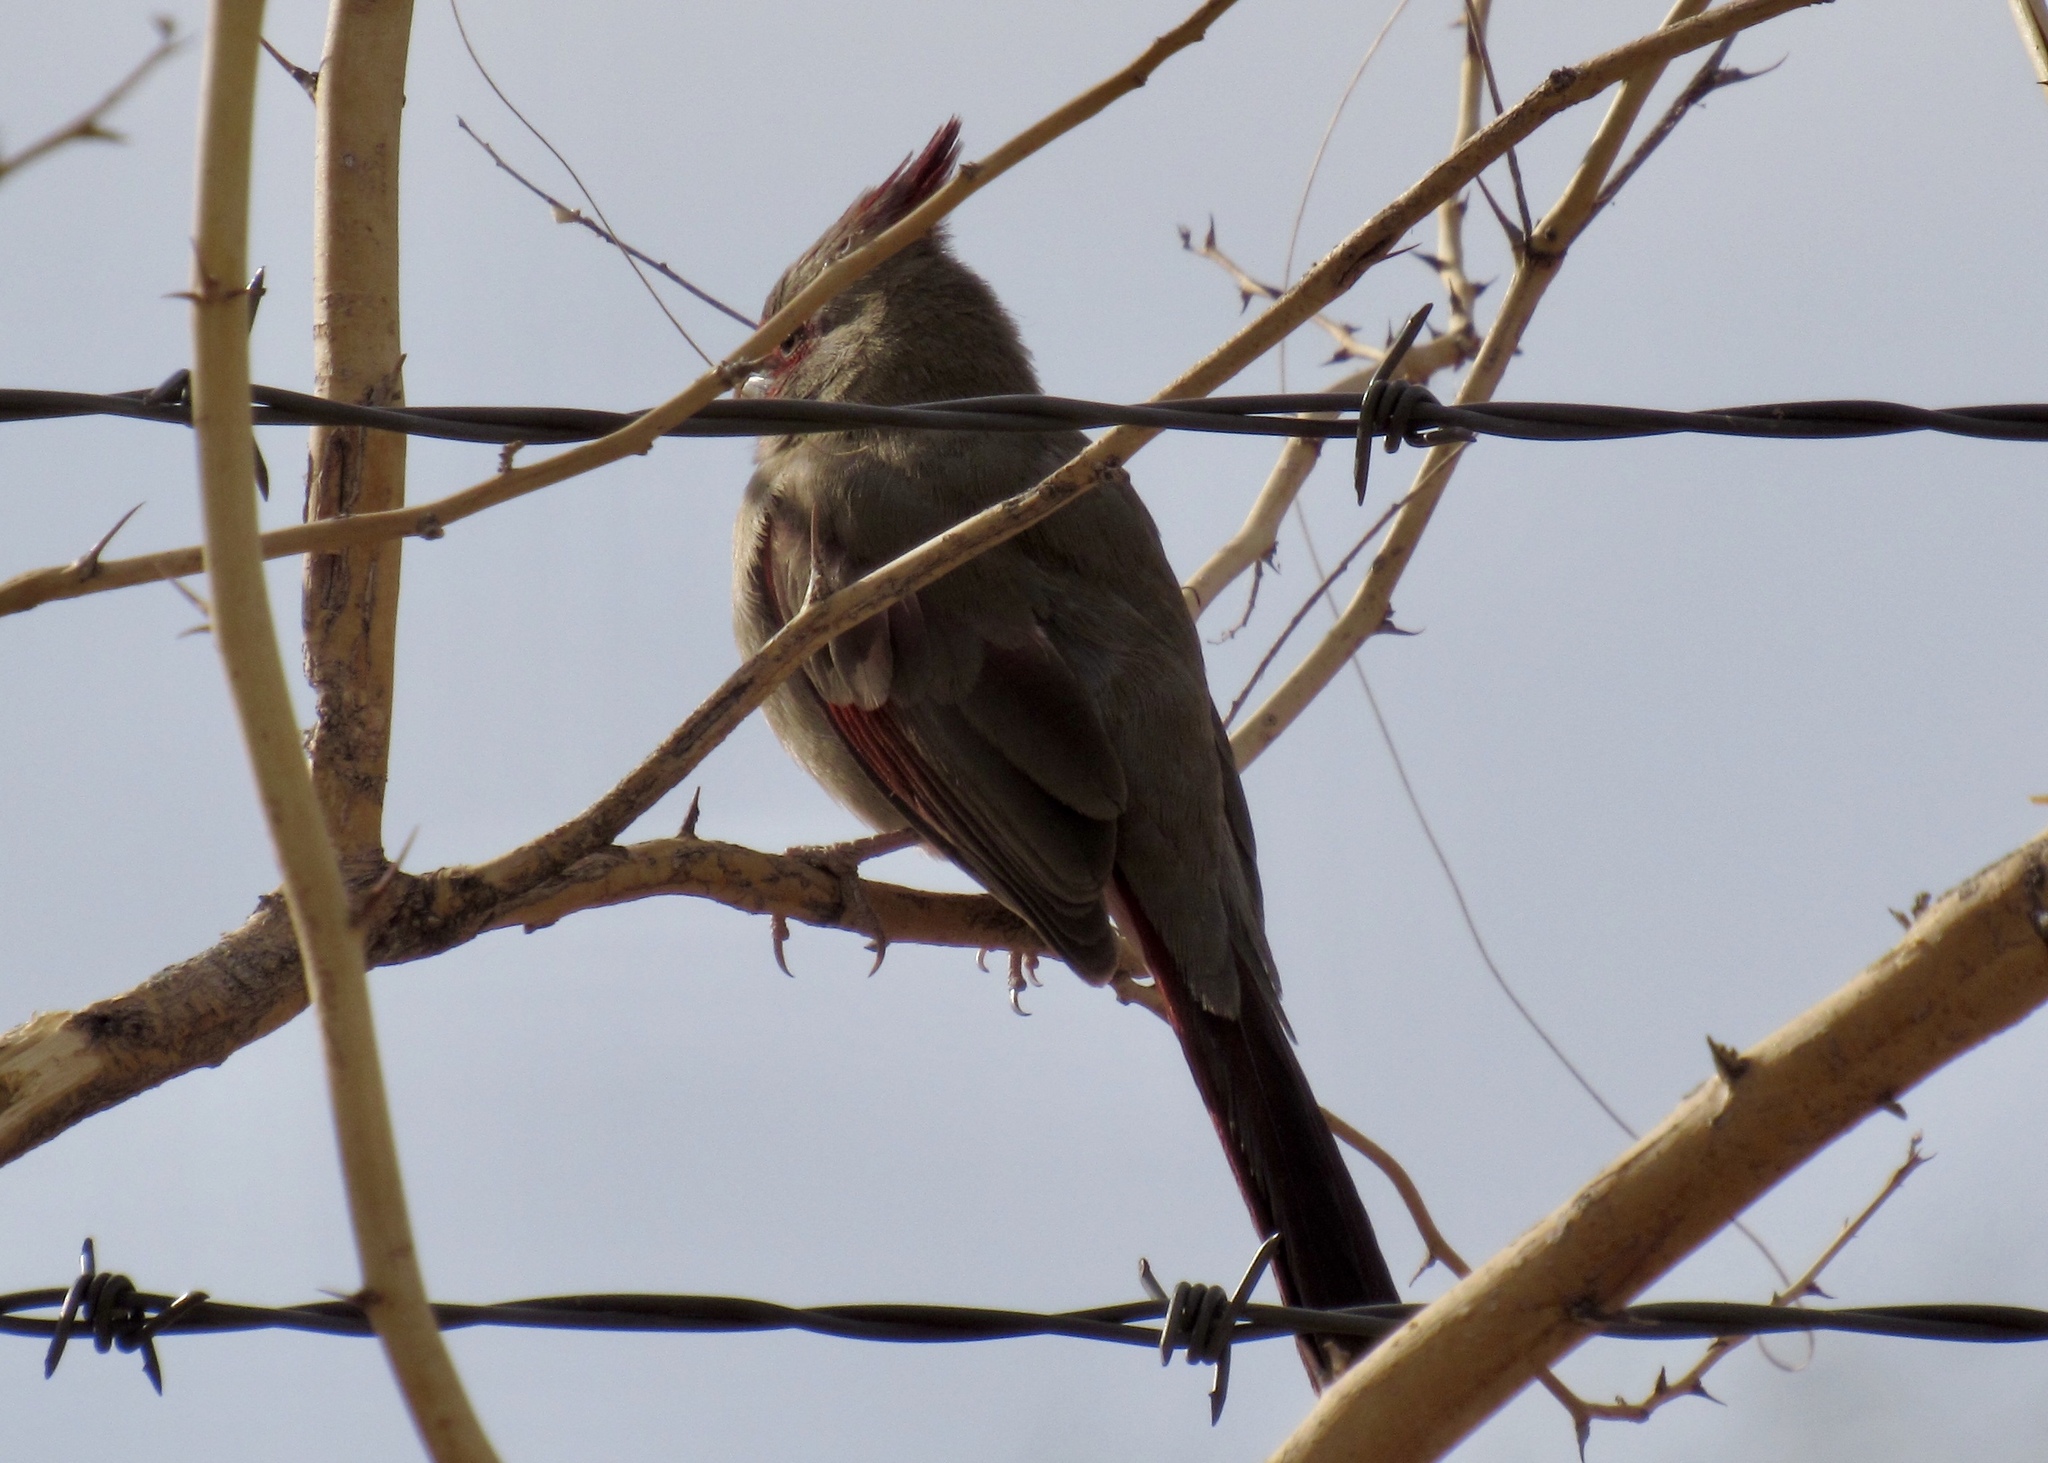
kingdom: Animalia
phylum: Chordata
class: Aves
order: Passeriformes
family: Cardinalidae
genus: Cardinalis
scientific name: Cardinalis sinuatus
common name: Pyrrhuloxia
